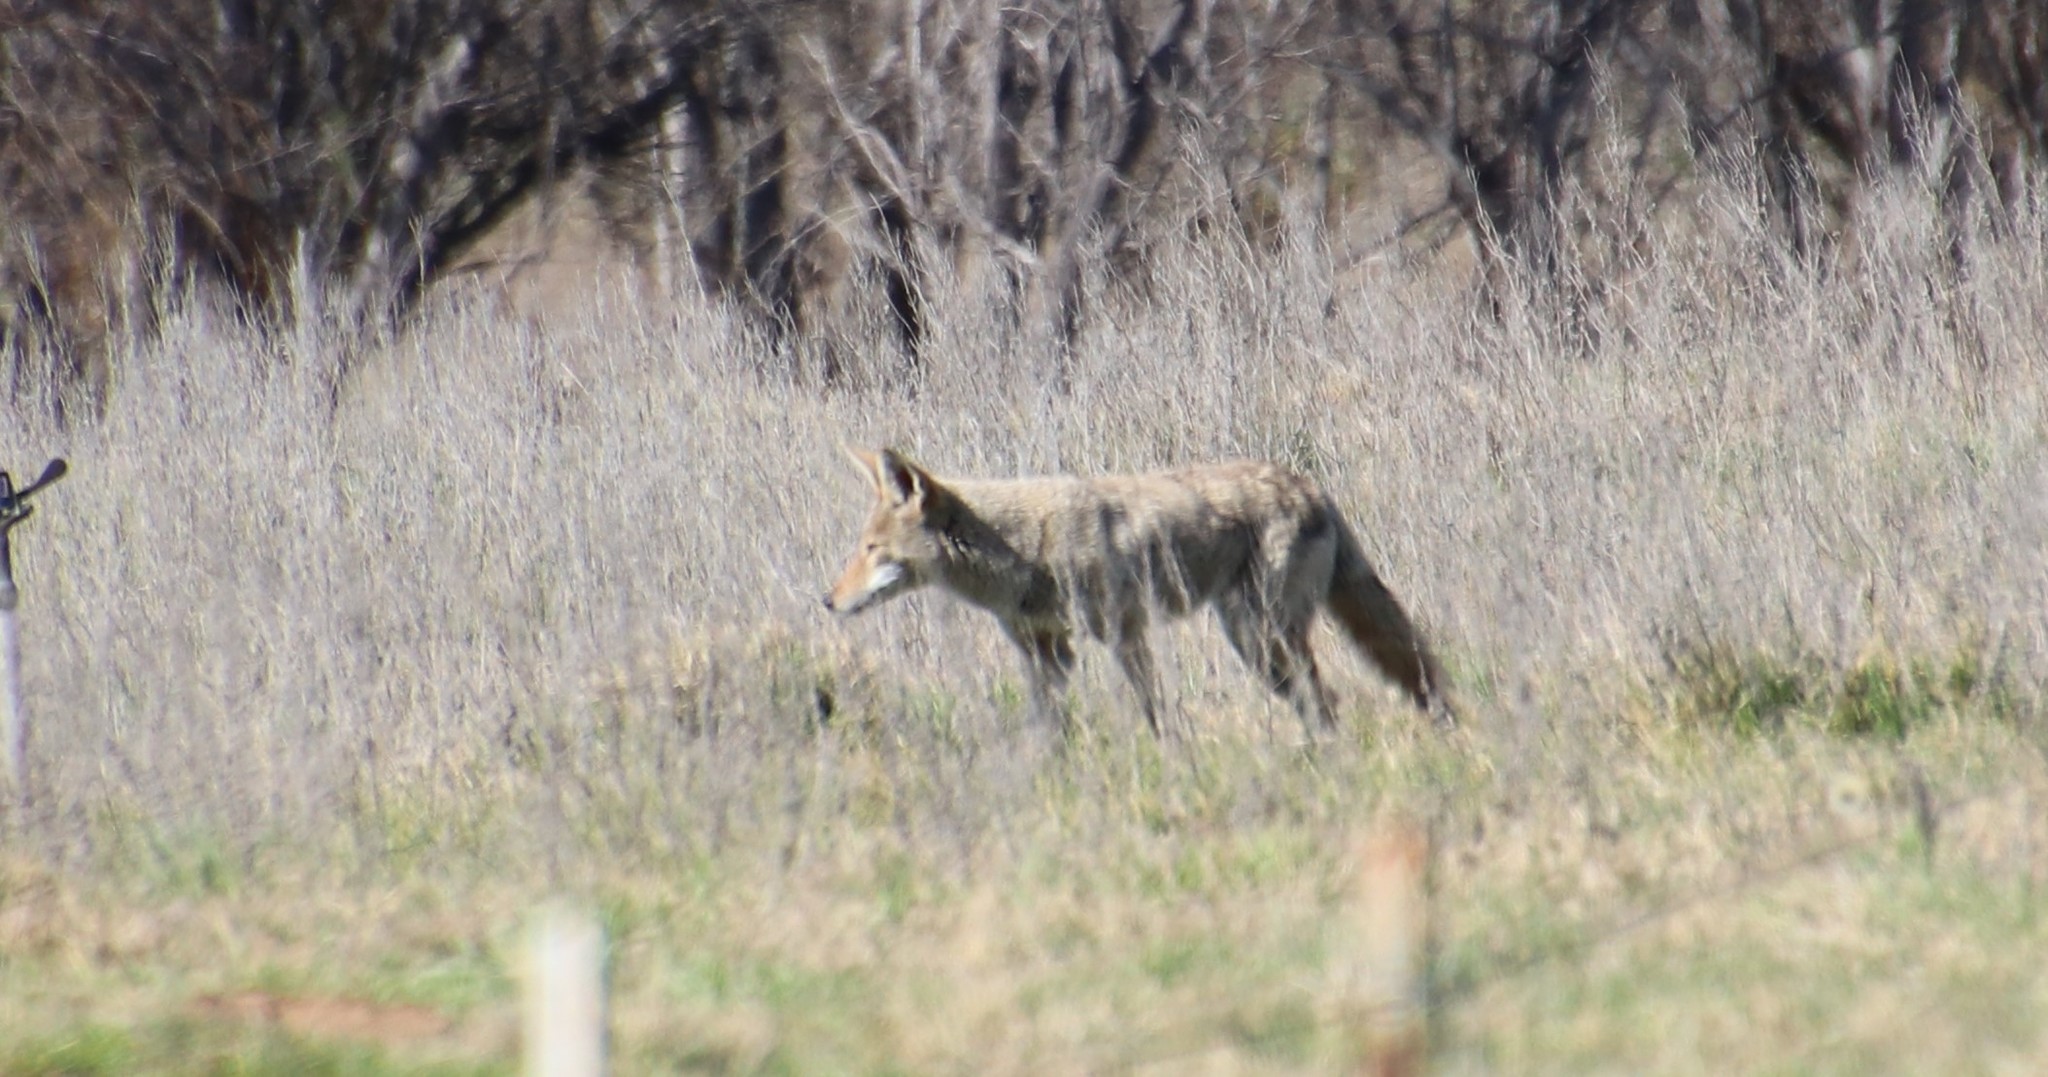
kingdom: Animalia
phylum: Chordata
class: Mammalia
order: Carnivora
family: Canidae
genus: Canis
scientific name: Canis latrans
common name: Coyote
